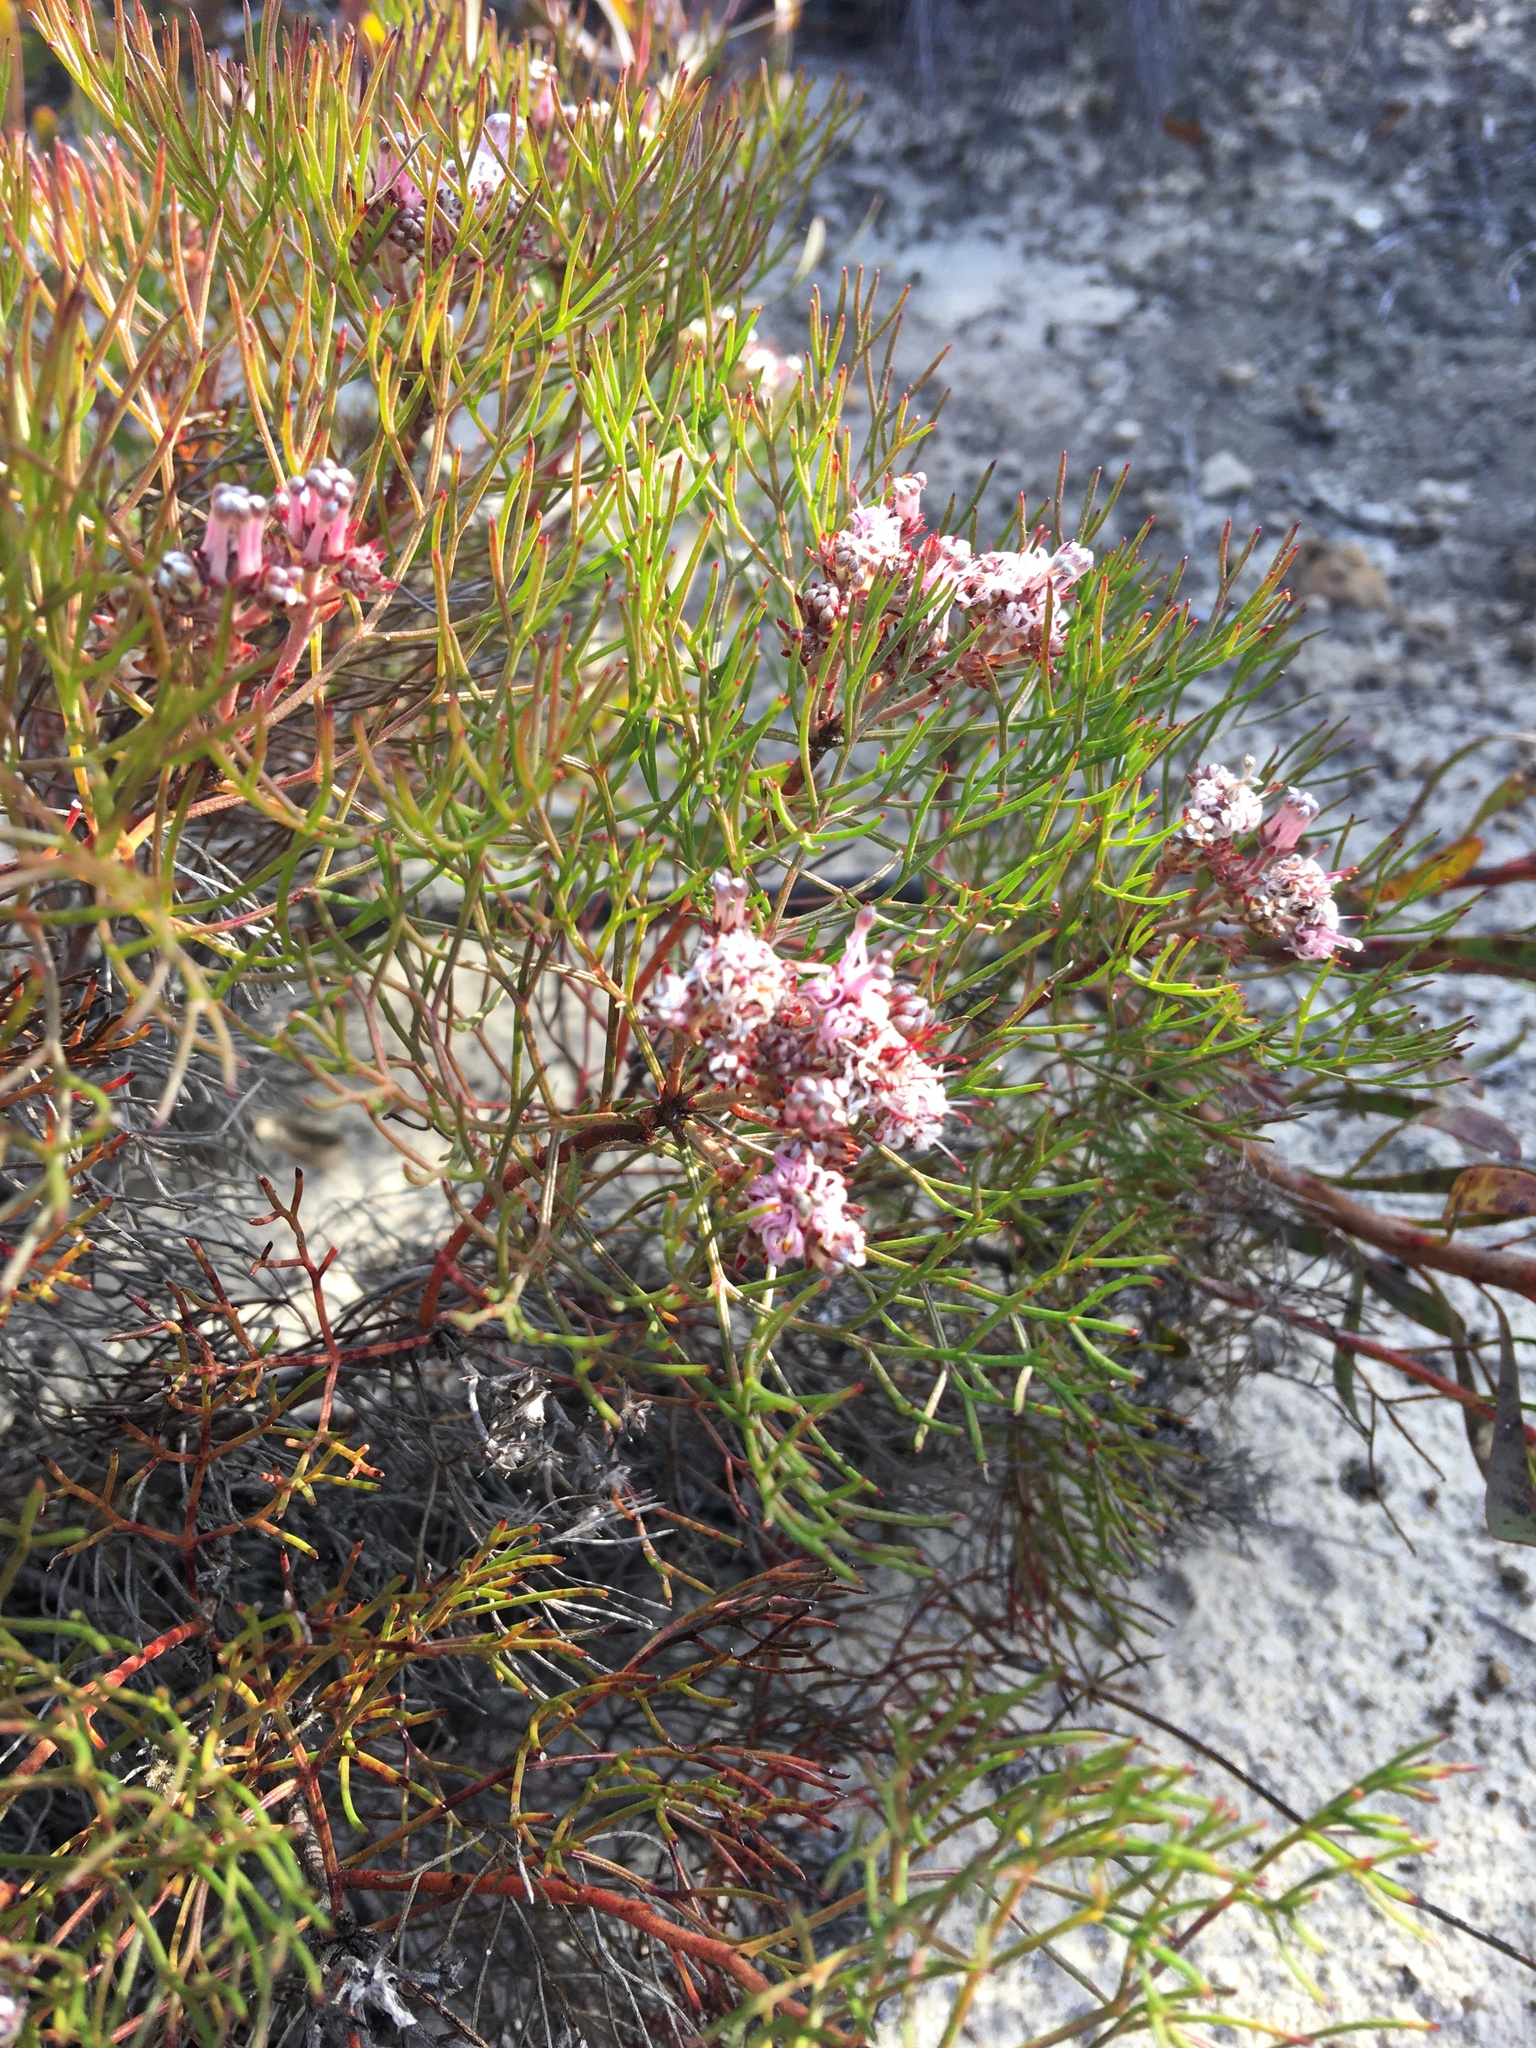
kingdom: Plantae
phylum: Tracheophyta
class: Magnoliopsida
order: Proteales
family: Proteaceae
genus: Serruria
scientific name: Serruria fasciflora
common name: Common pin spiderhead
